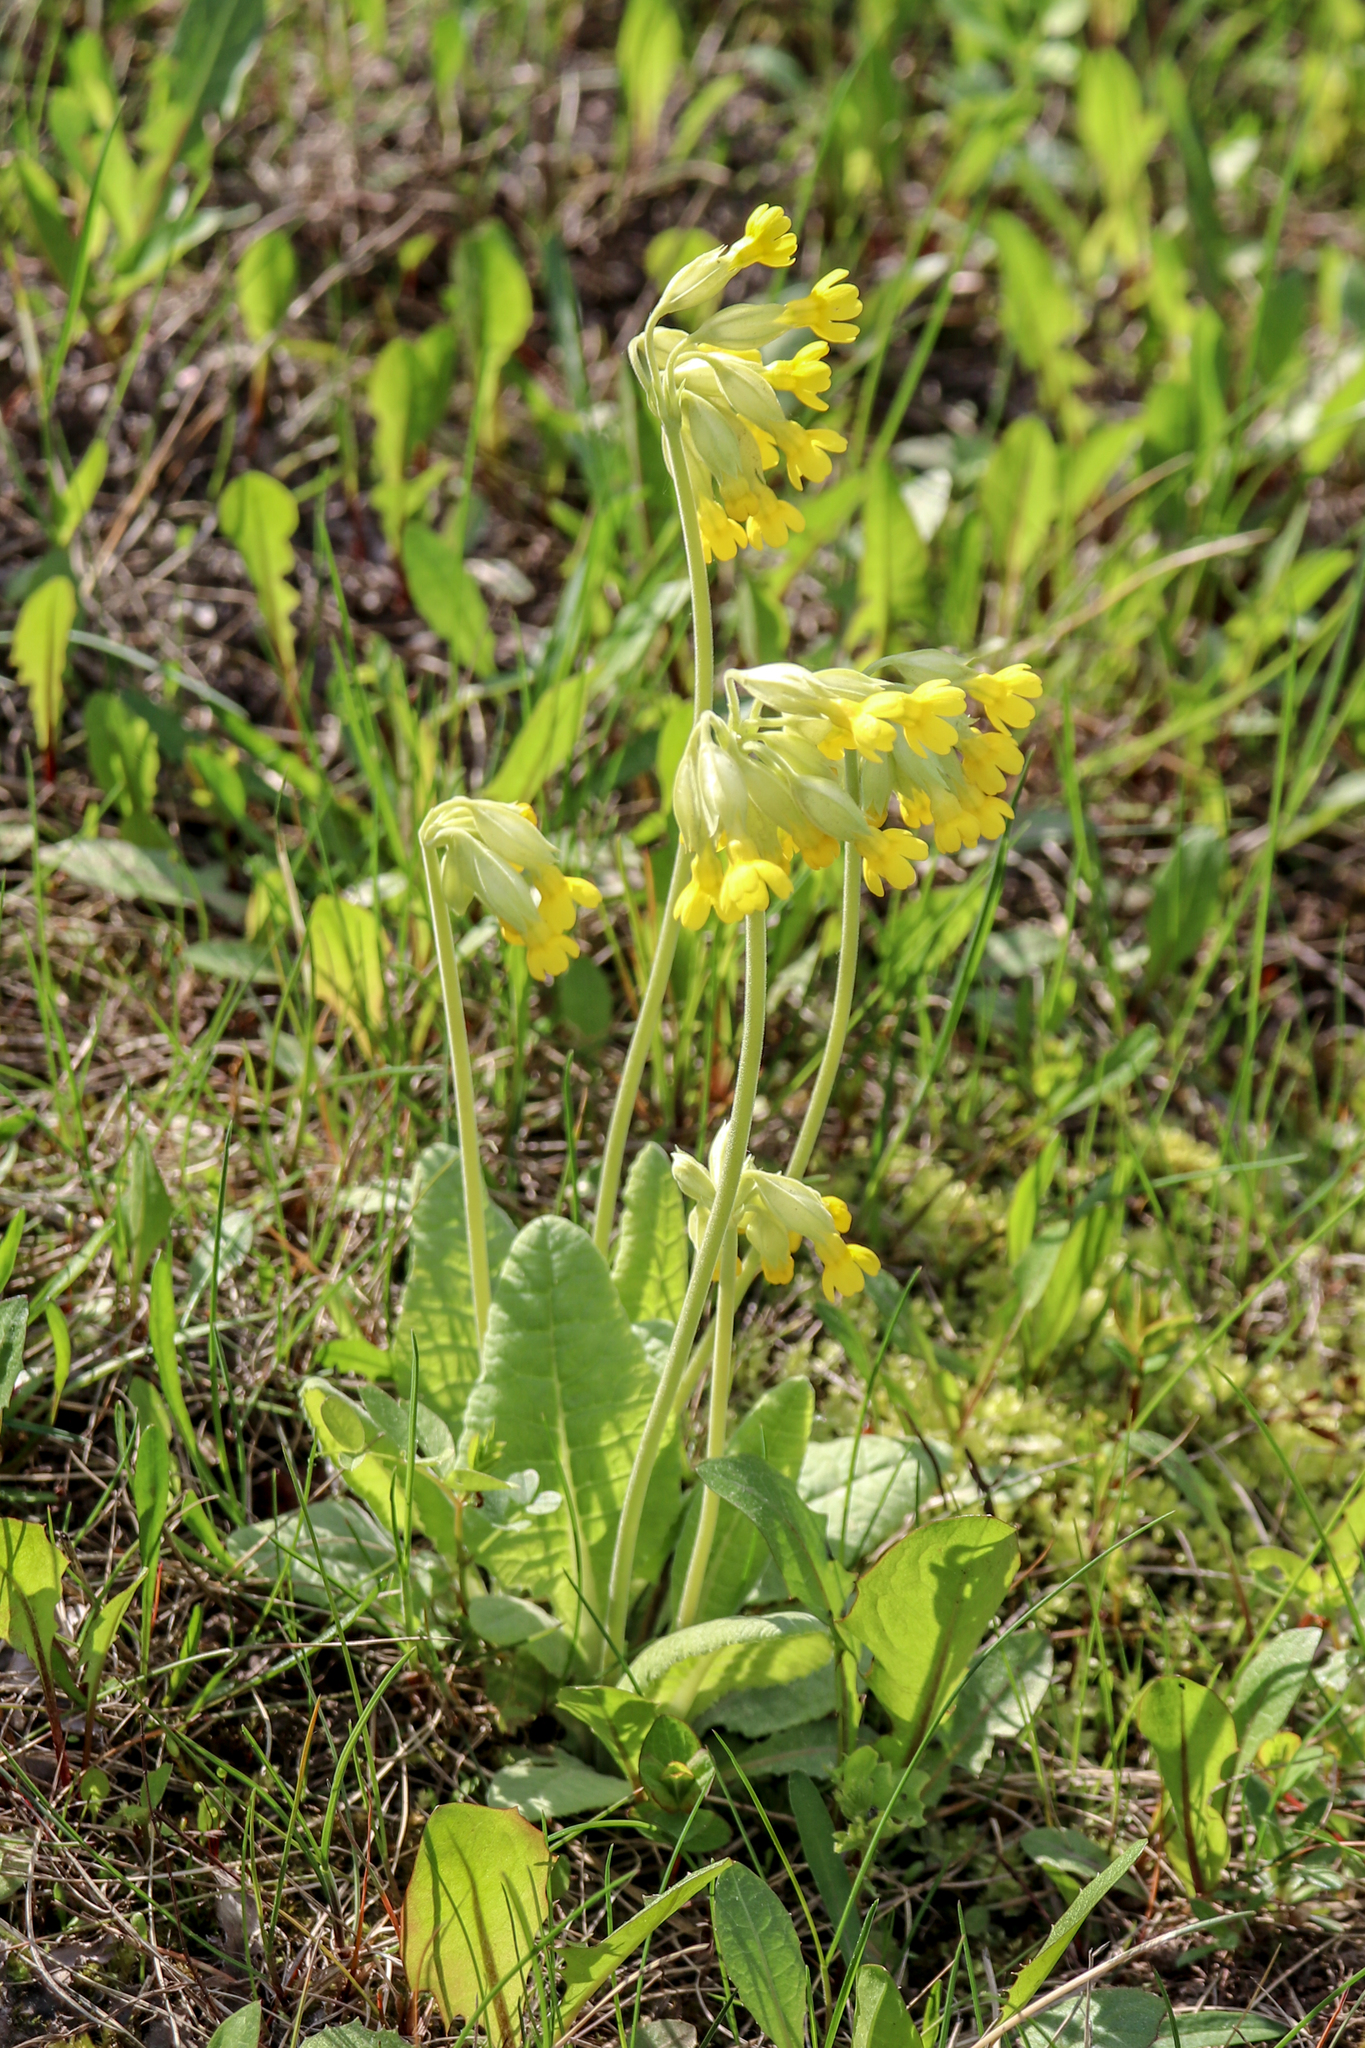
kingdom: Plantae
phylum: Tracheophyta
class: Magnoliopsida
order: Ericales
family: Primulaceae
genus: Primula
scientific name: Primula veris
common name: Cowslip
